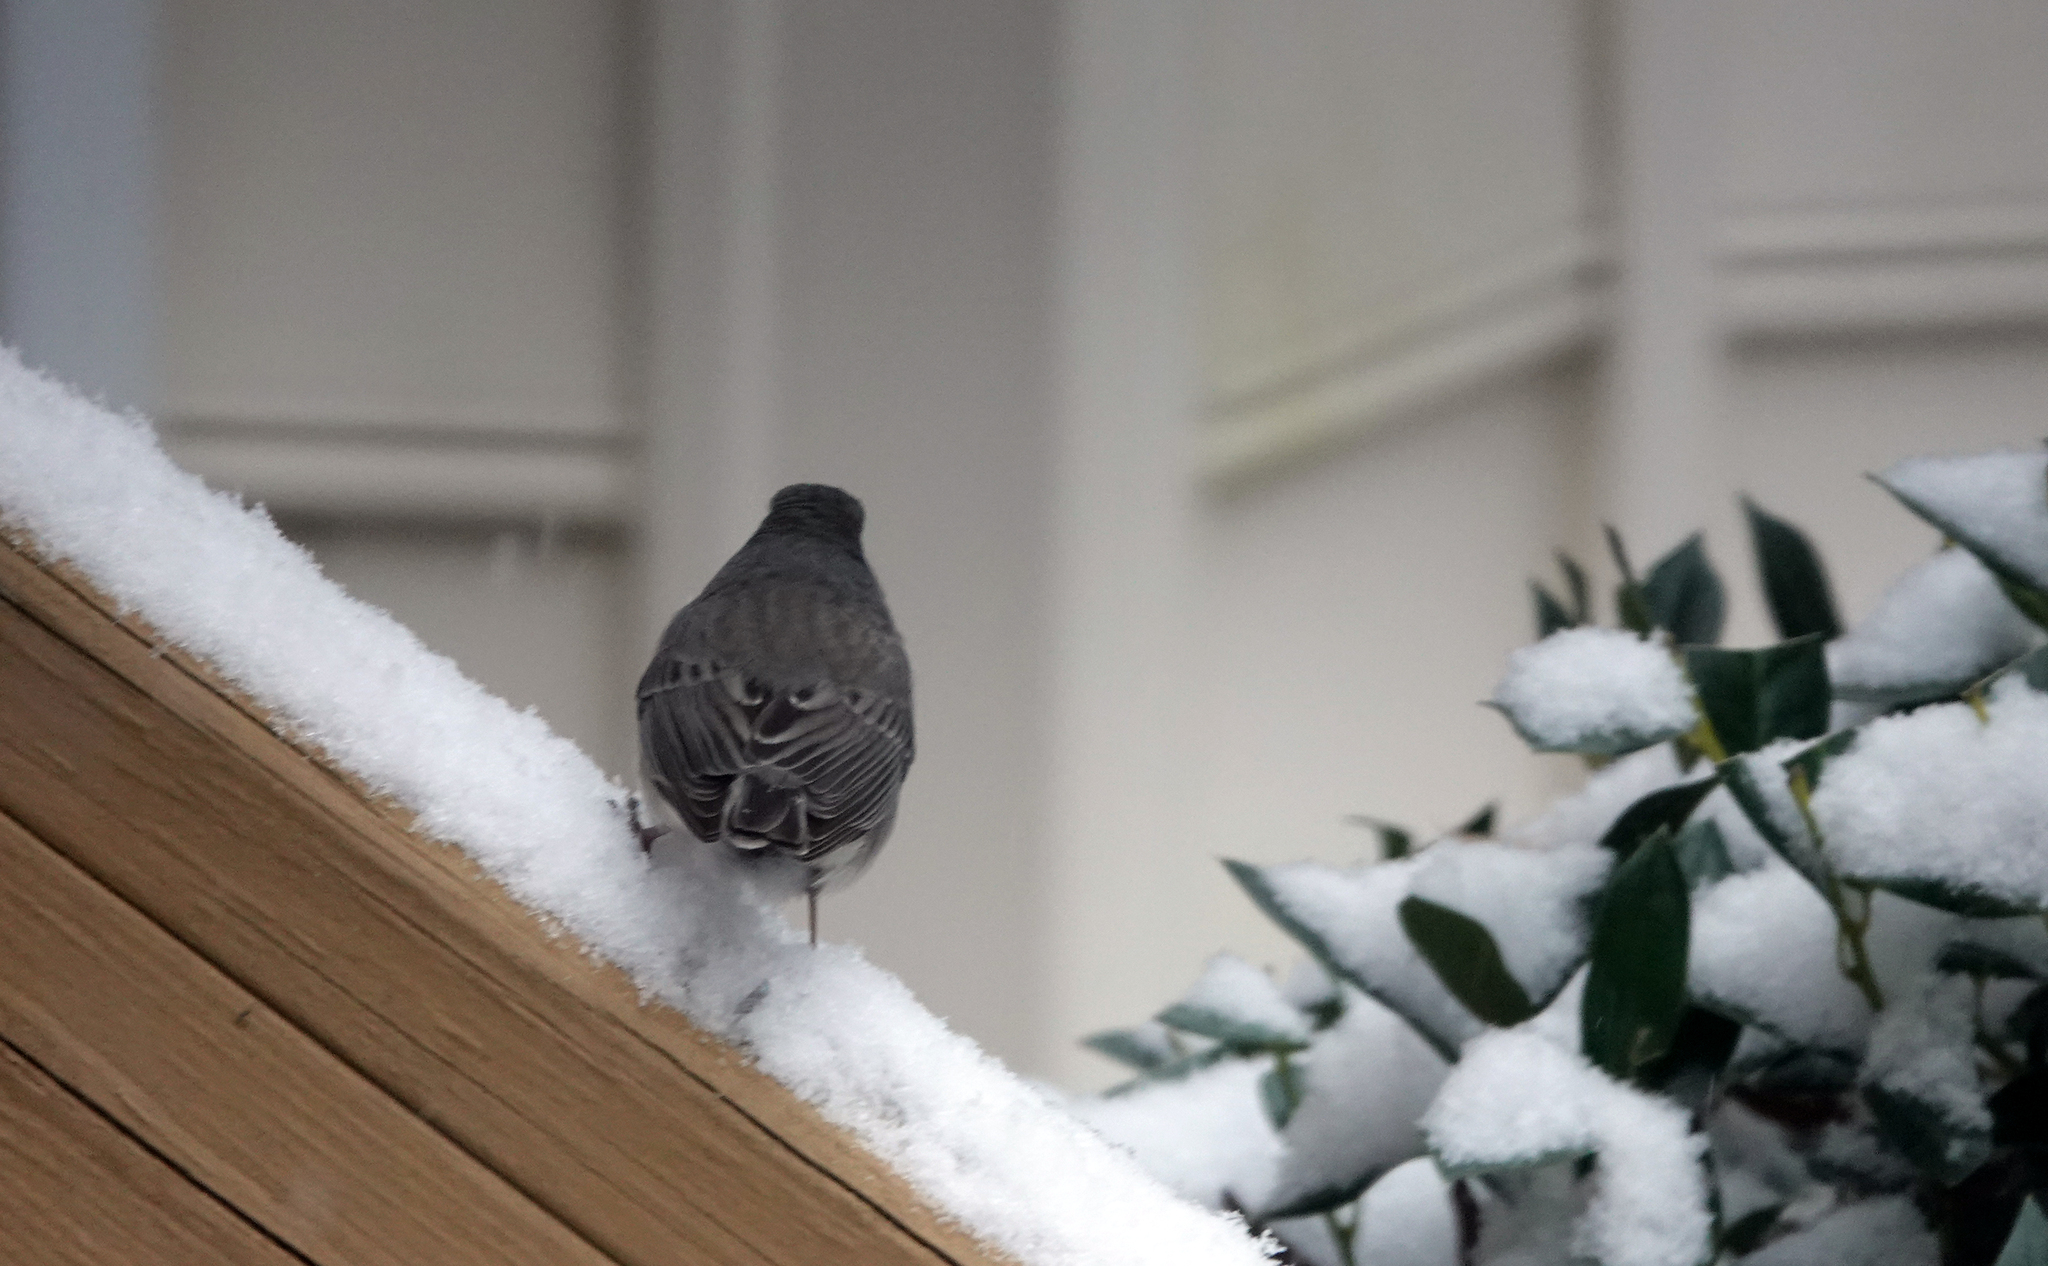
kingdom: Animalia
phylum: Chordata
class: Aves
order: Passeriformes
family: Passerellidae
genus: Junco
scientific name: Junco hyemalis
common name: Dark-eyed junco
